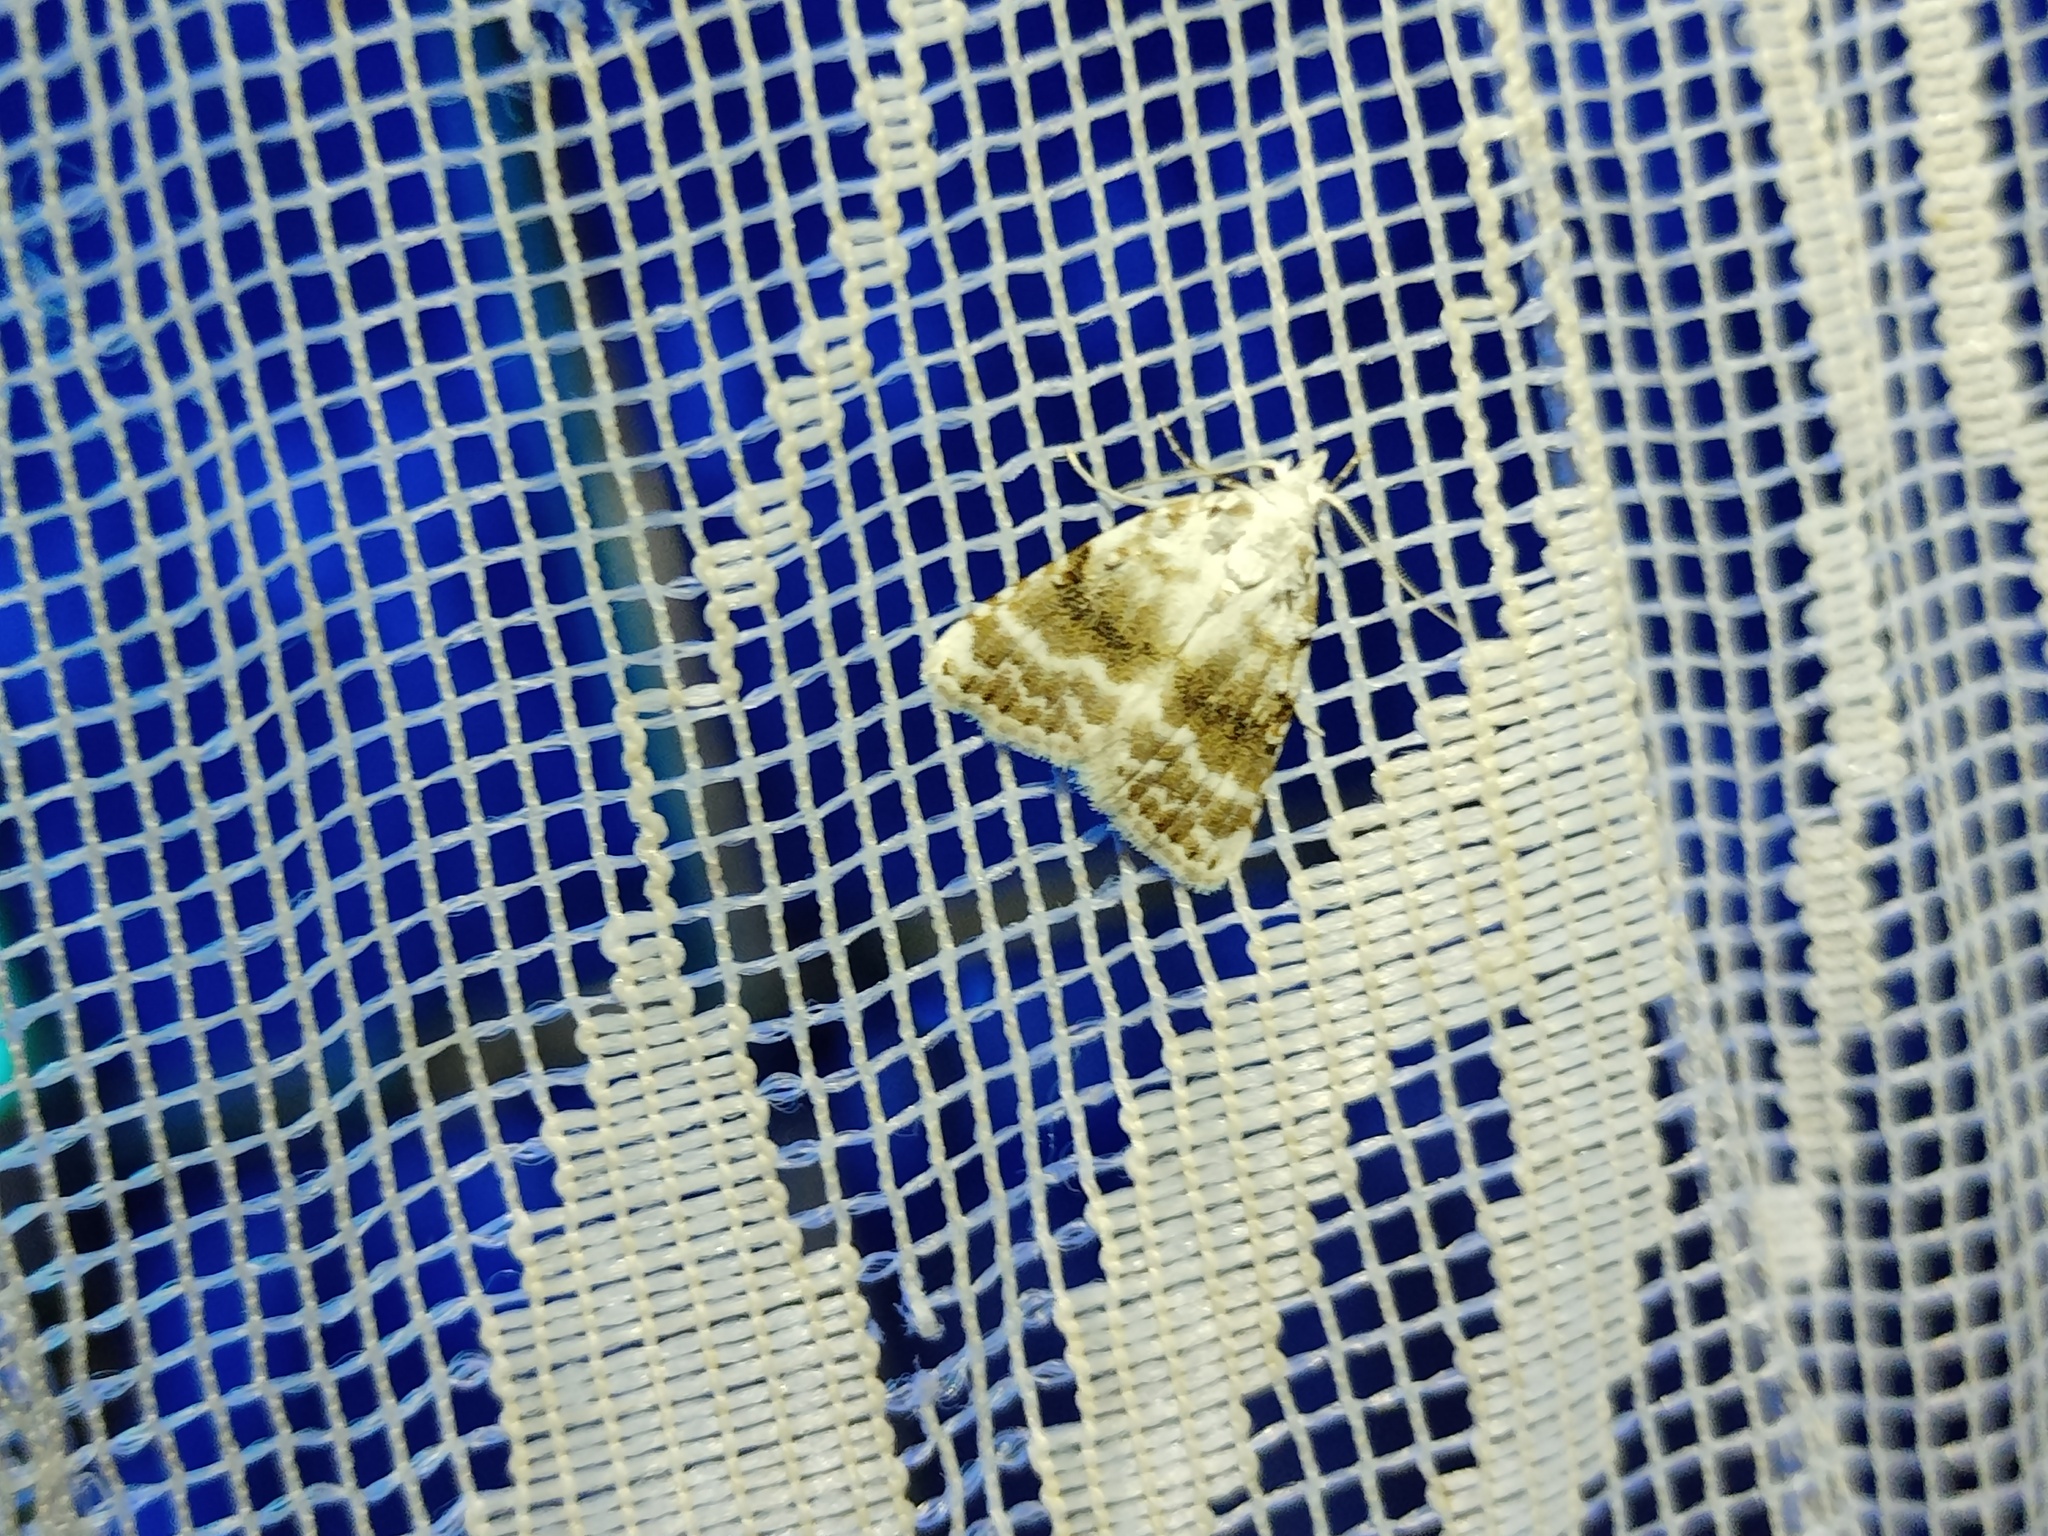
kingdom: Animalia
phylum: Arthropoda
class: Insecta
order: Lepidoptera
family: Nolidae
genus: Meganola
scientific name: Meganola albula
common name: Kent black arches
